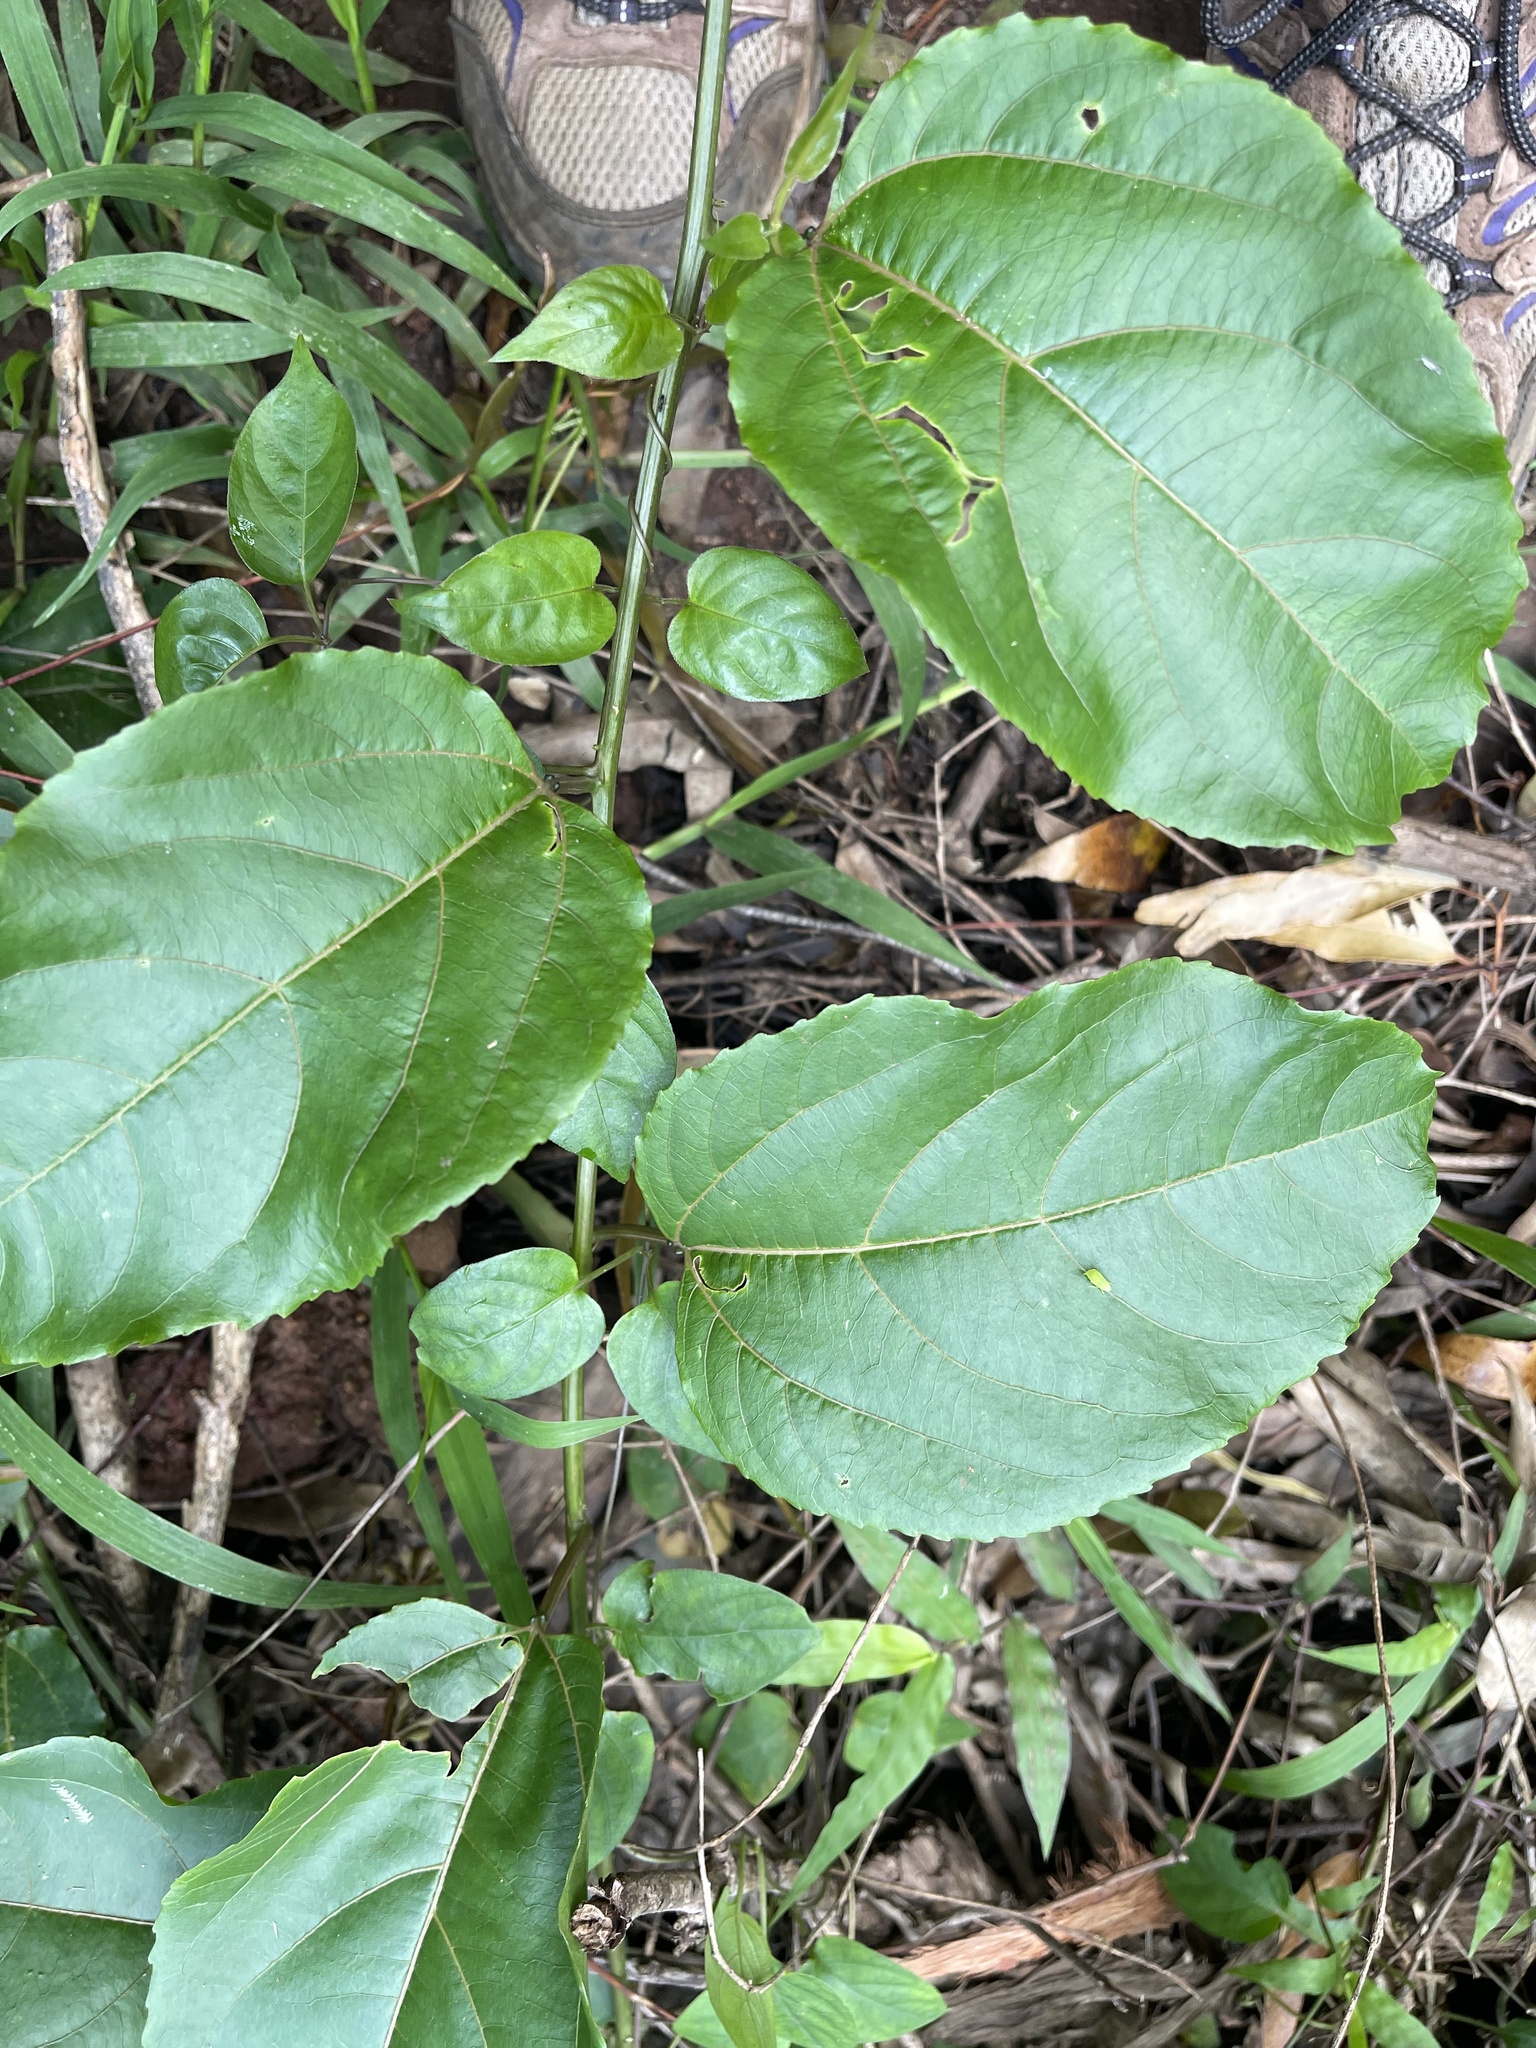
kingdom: Plantae
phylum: Tracheophyta
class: Magnoliopsida
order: Malpighiales
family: Passifloraceae
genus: Passiflora
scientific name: Passiflora edulis
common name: Purple granadilla
